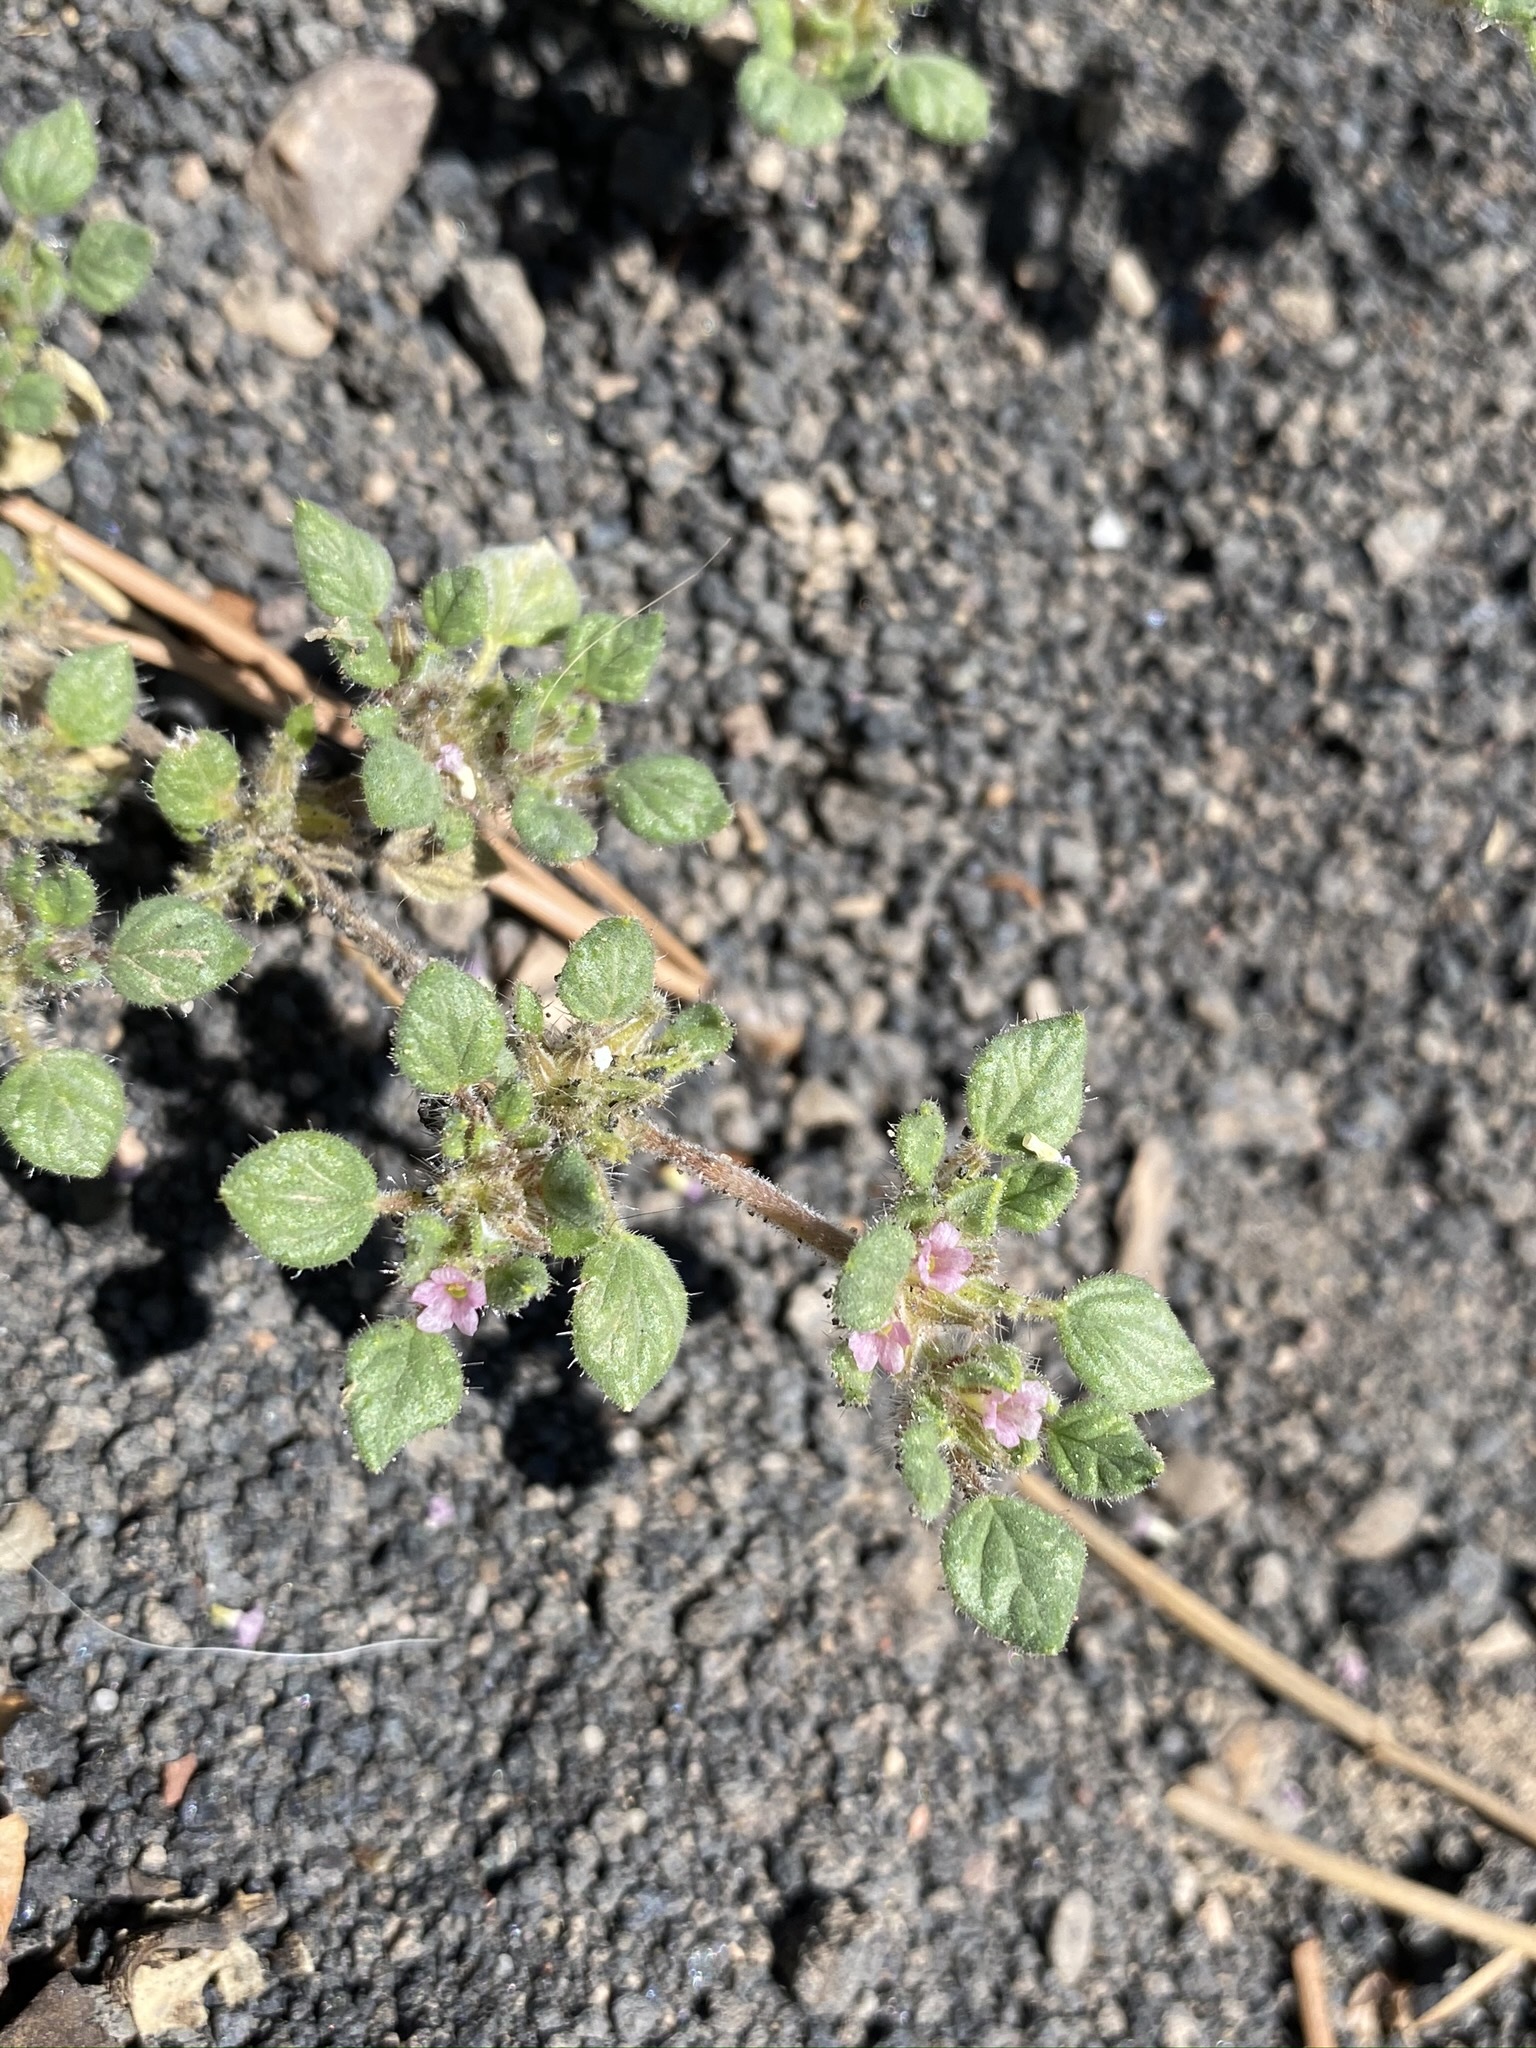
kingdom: Plantae
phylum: Tracheophyta
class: Magnoliopsida
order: Boraginales
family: Ehretiaceae
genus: Tiquilia
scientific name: Tiquilia nuttallii
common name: Rosette tiquilia
